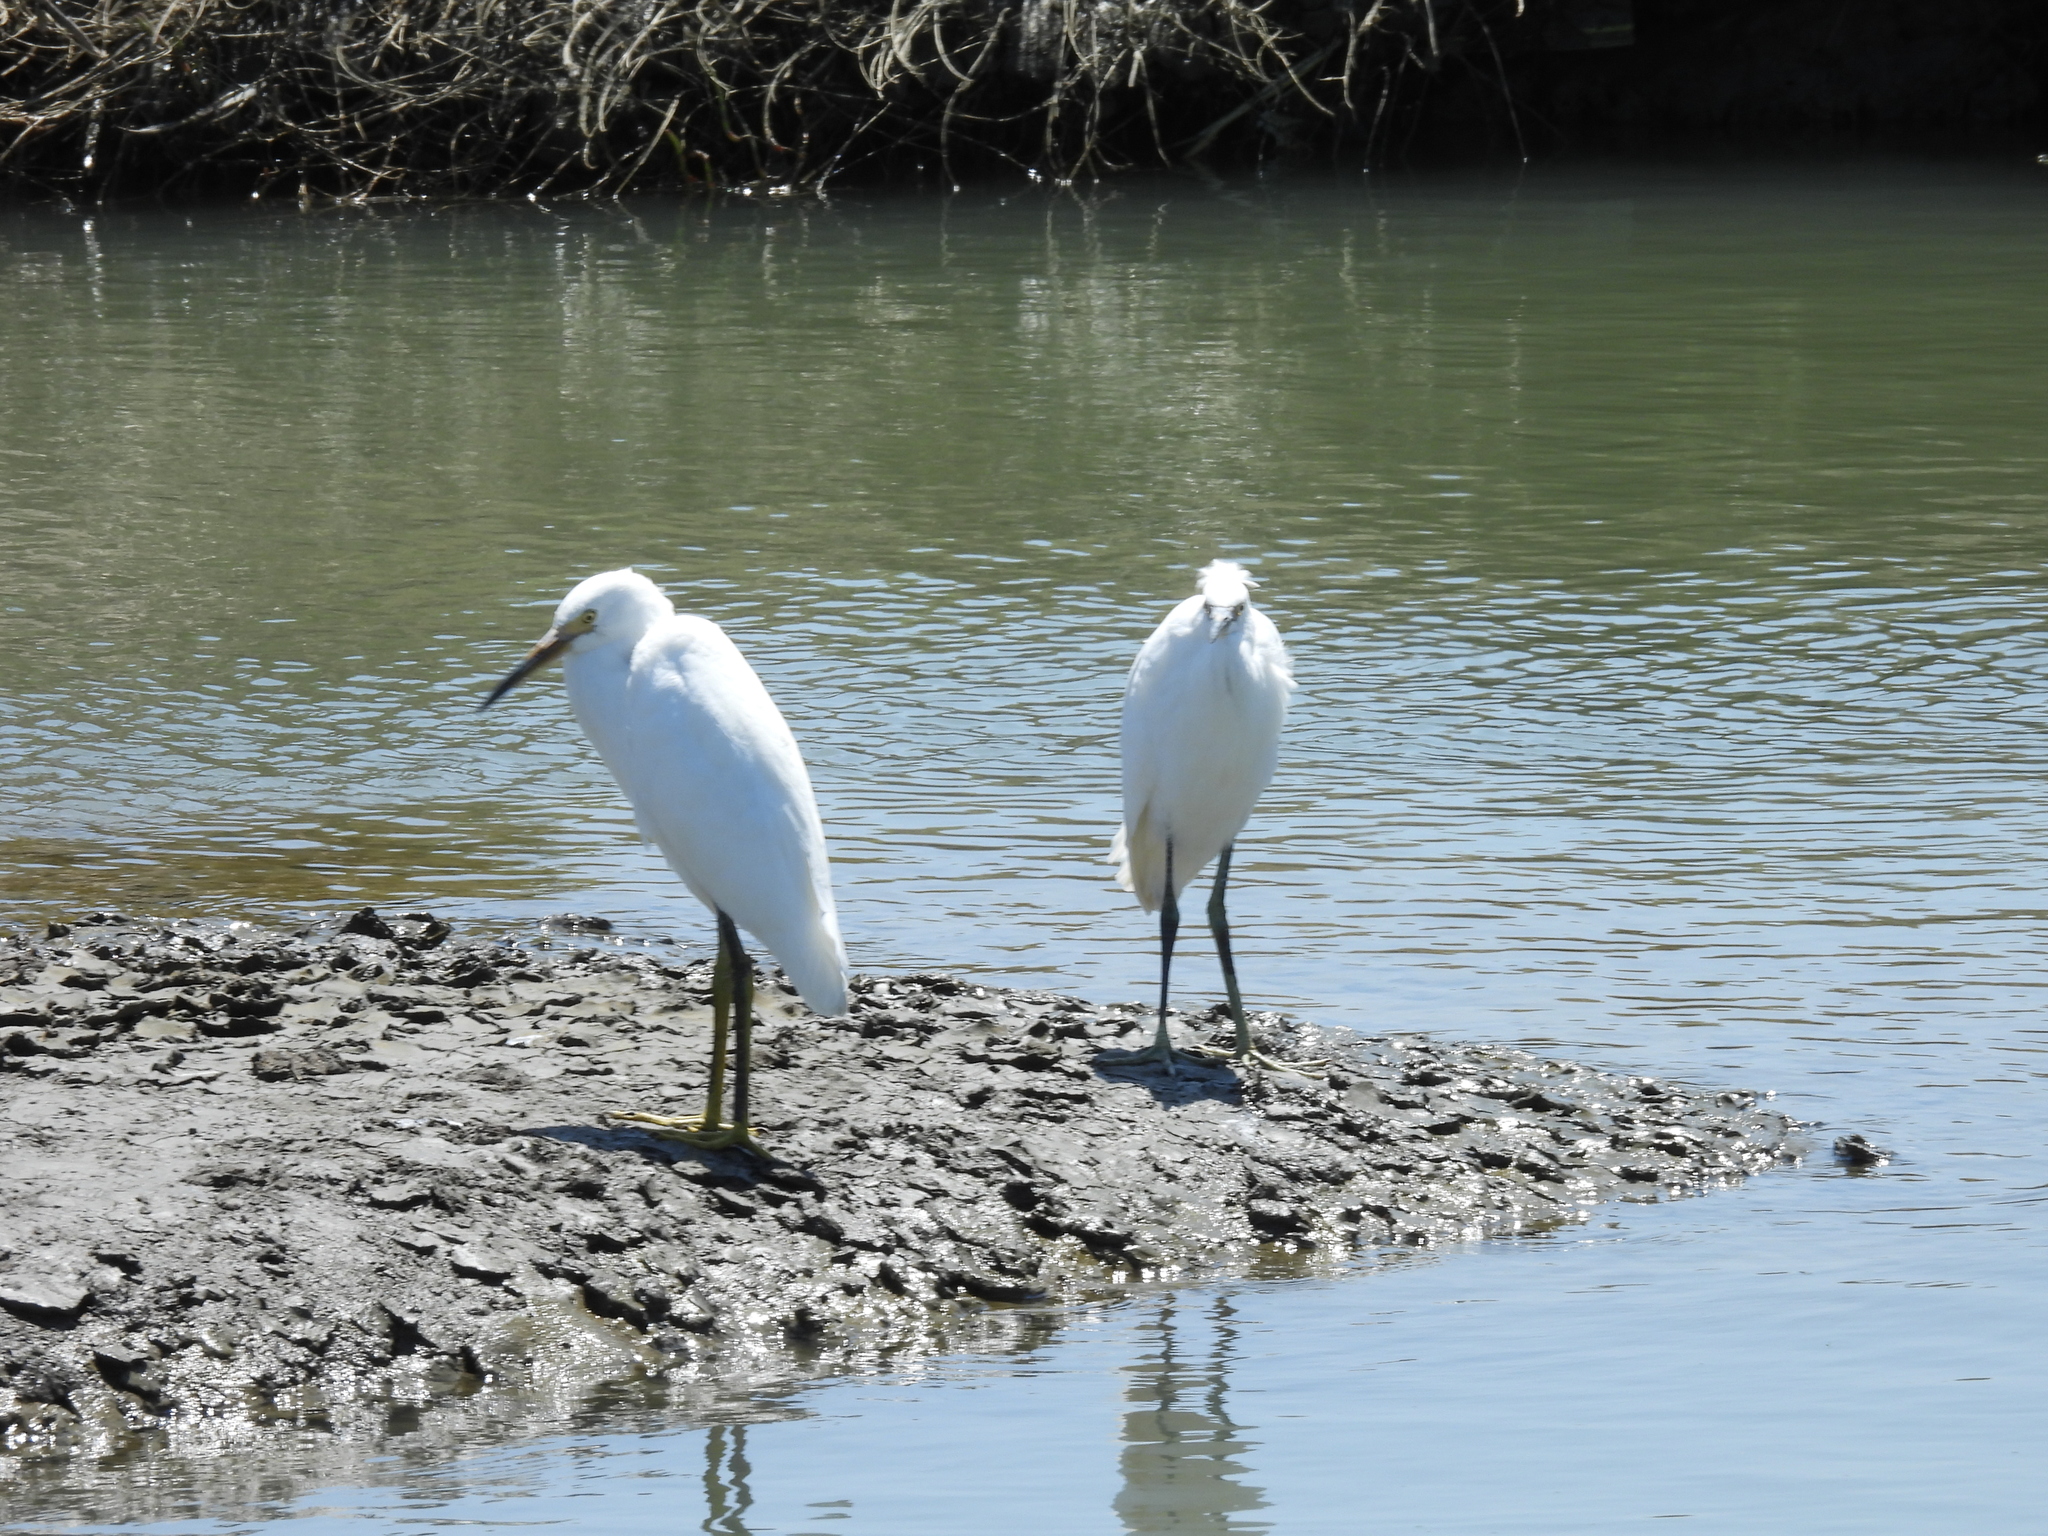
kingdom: Animalia
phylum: Chordata
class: Aves
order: Pelecaniformes
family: Ardeidae
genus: Egretta
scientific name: Egretta thula
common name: Snowy egret
